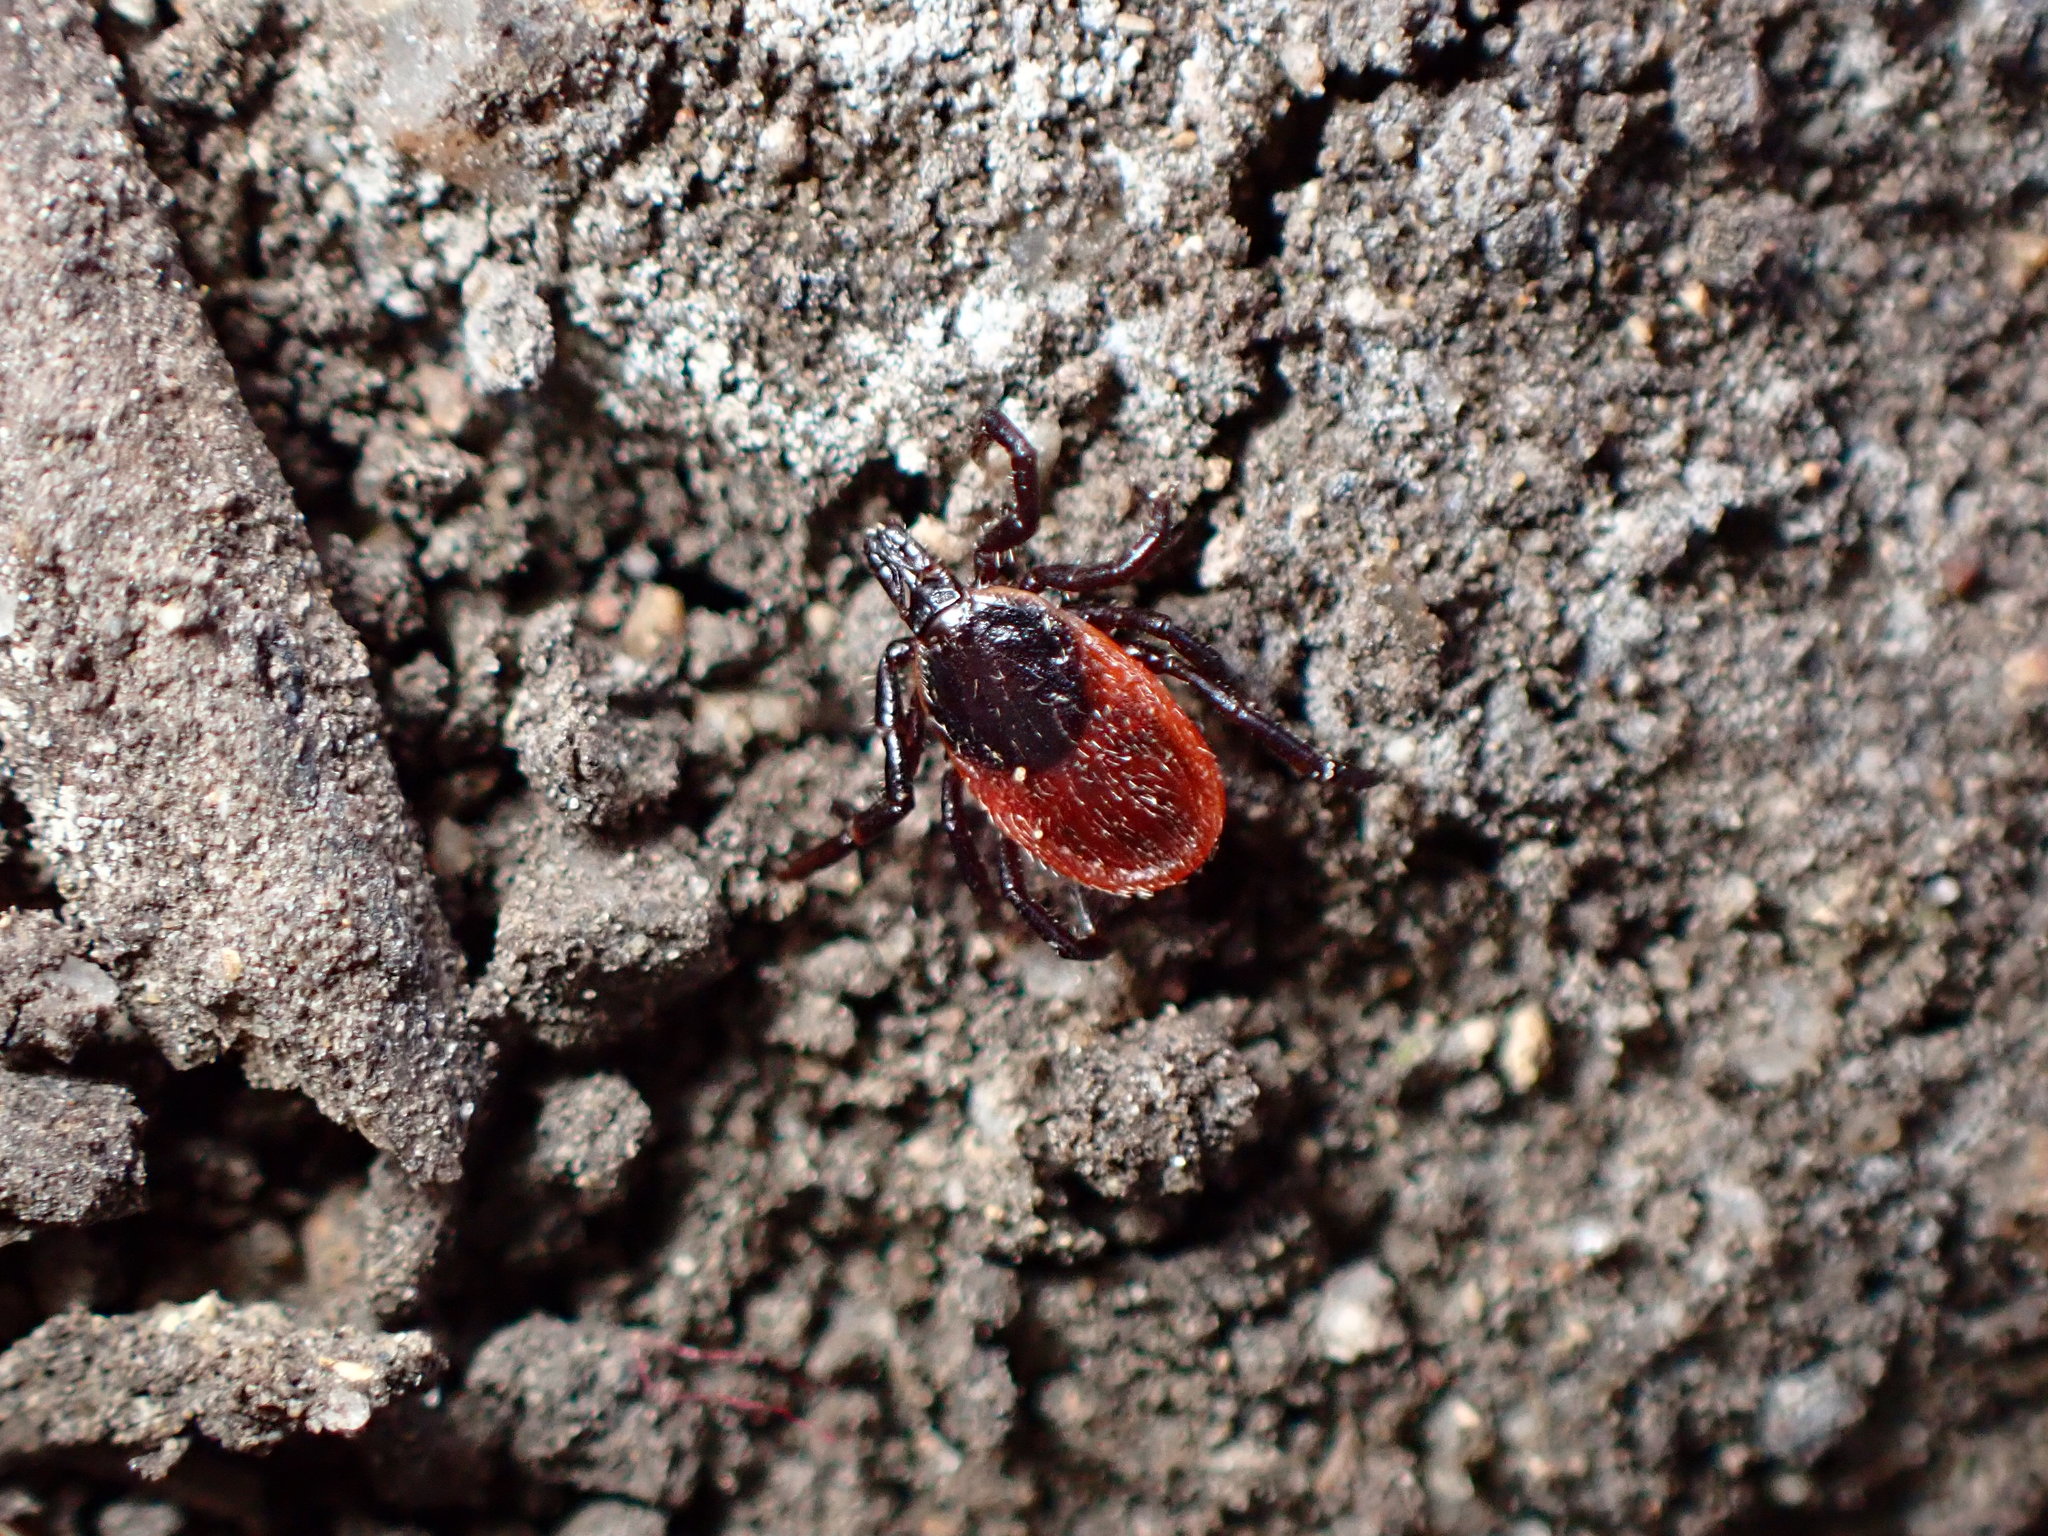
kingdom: Animalia
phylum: Arthropoda
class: Arachnida
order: Ixodida
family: Ixodidae
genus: Ixodes
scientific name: Ixodes pacificus
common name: California black-legged tick
